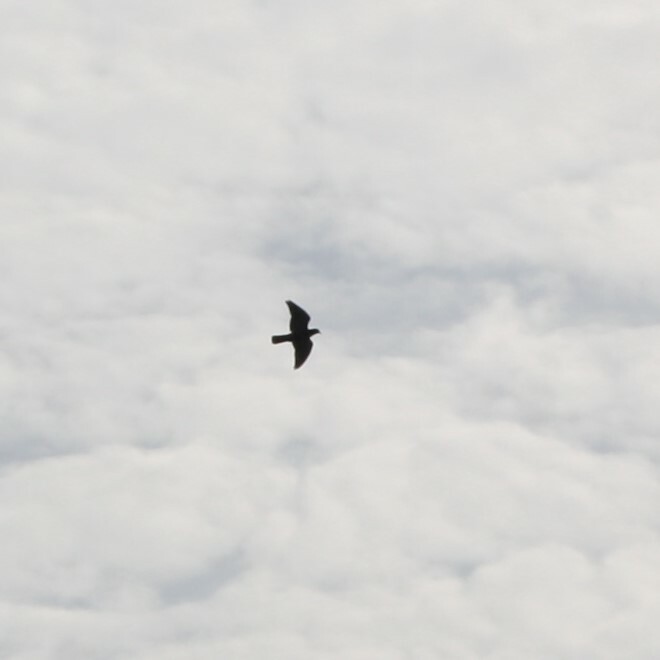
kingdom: Animalia
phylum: Chordata
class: Aves
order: Columbiformes
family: Columbidae
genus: Columba
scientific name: Columba livia
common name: Rock pigeon
